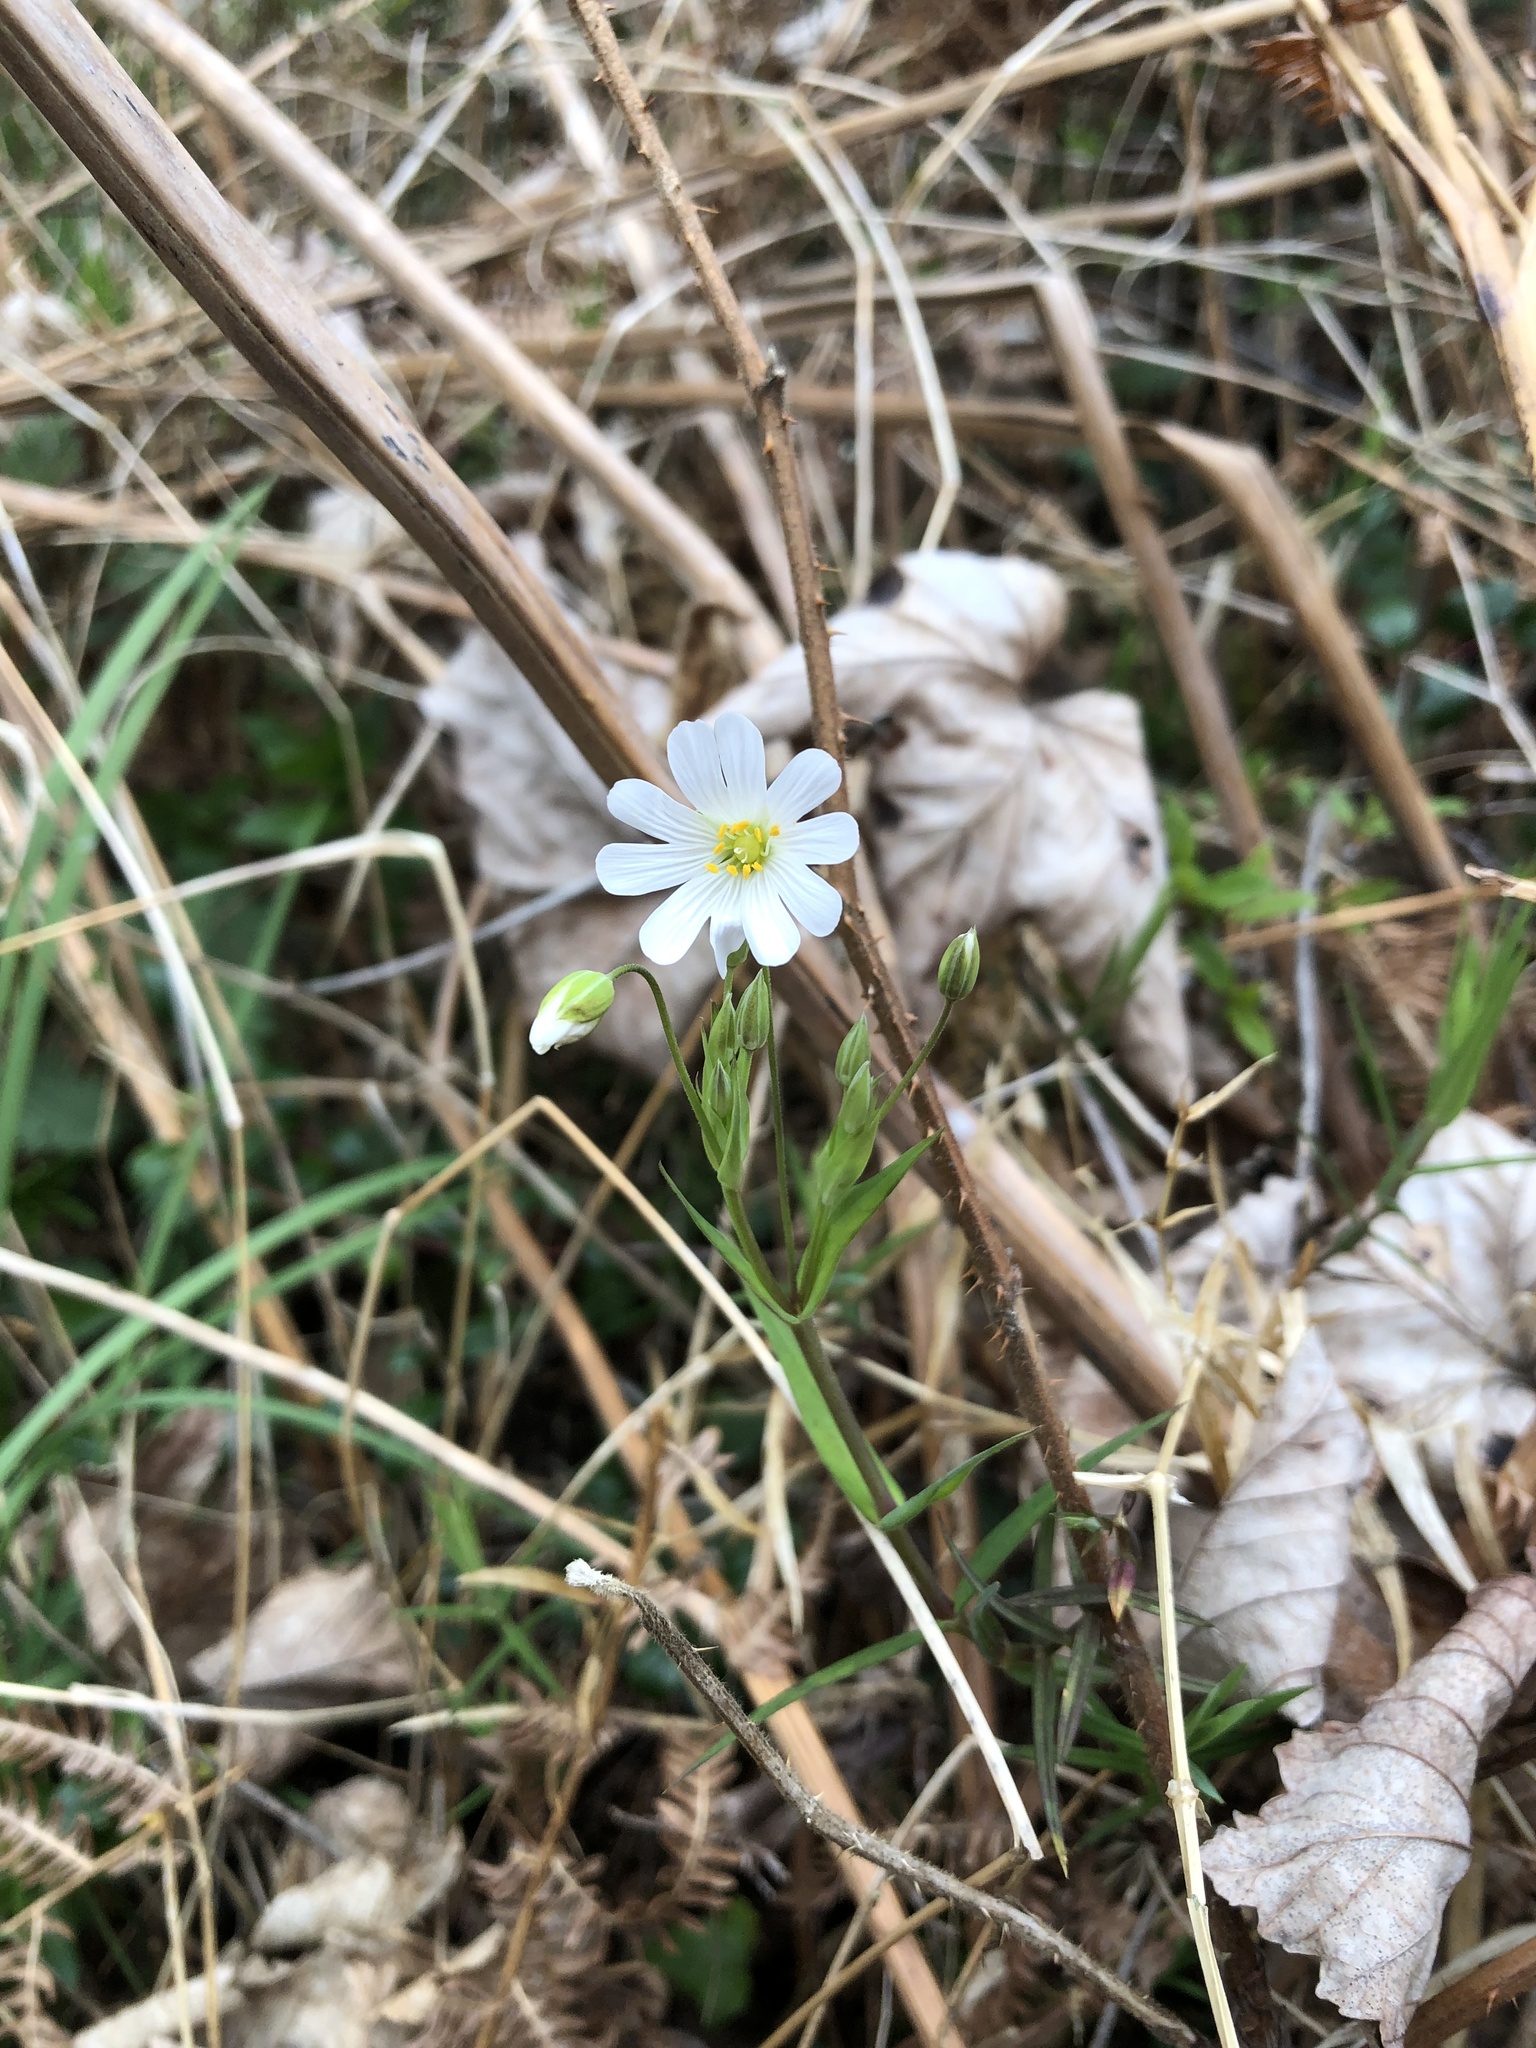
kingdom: Plantae
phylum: Tracheophyta
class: Magnoliopsida
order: Caryophyllales
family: Caryophyllaceae
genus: Rabelera
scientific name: Rabelera holostea
